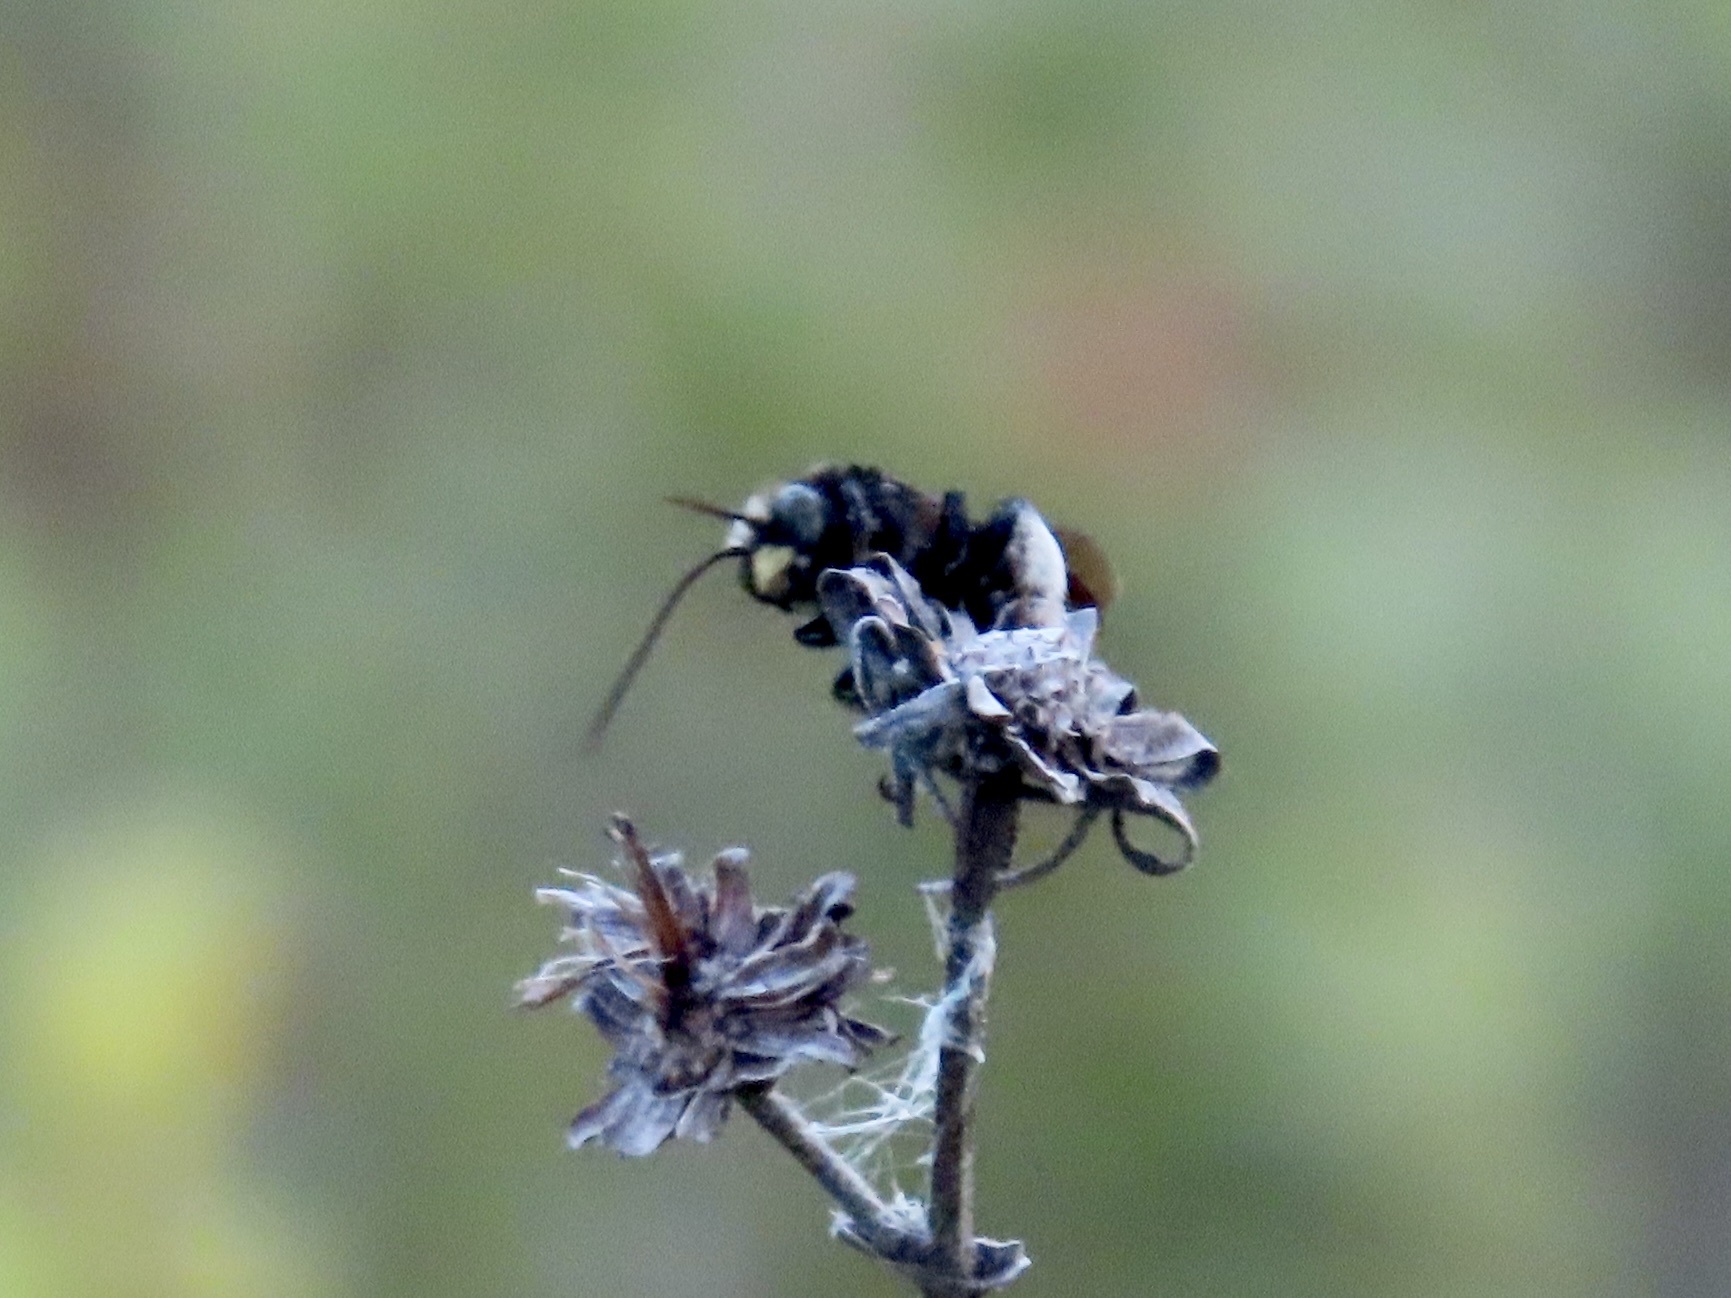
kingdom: Animalia
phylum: Arthropoda
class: Insecta
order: Hymenoptera
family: Apidae
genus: Melissodes
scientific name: Melissodes bimaculatus
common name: Two-spotted long-horned bee
